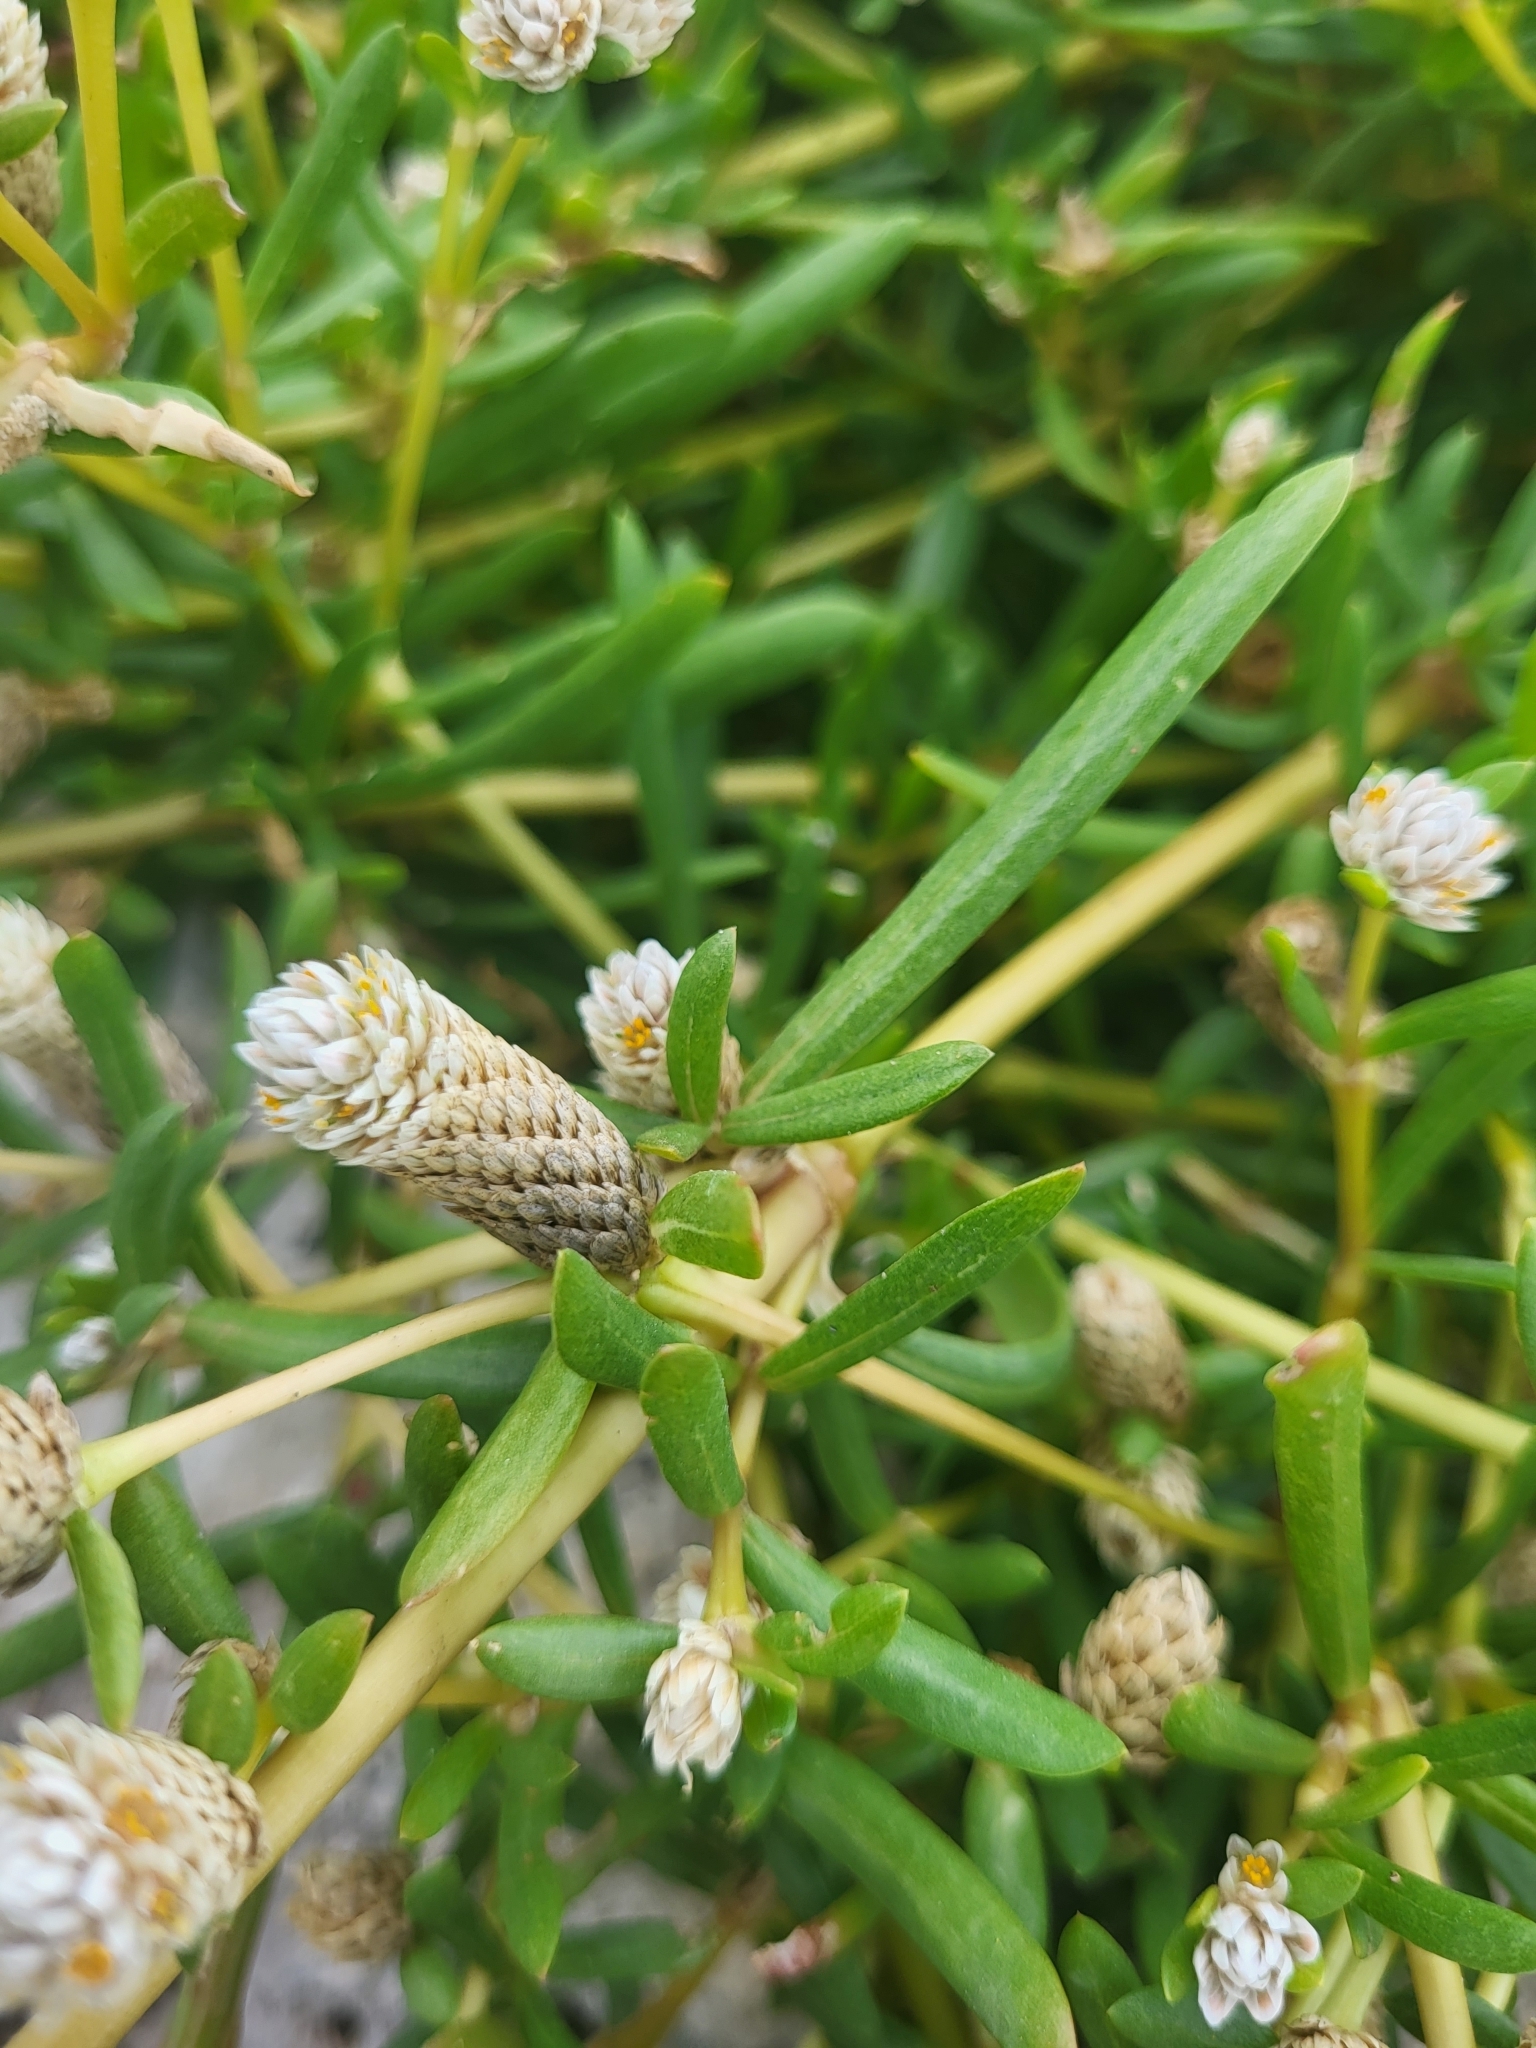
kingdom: Plantae
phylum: Tracheophyta
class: Magnoliopsida
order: Caryophyllales
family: Amaranthaceae
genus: Gomphrena
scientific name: Gomphrena vermicularis
